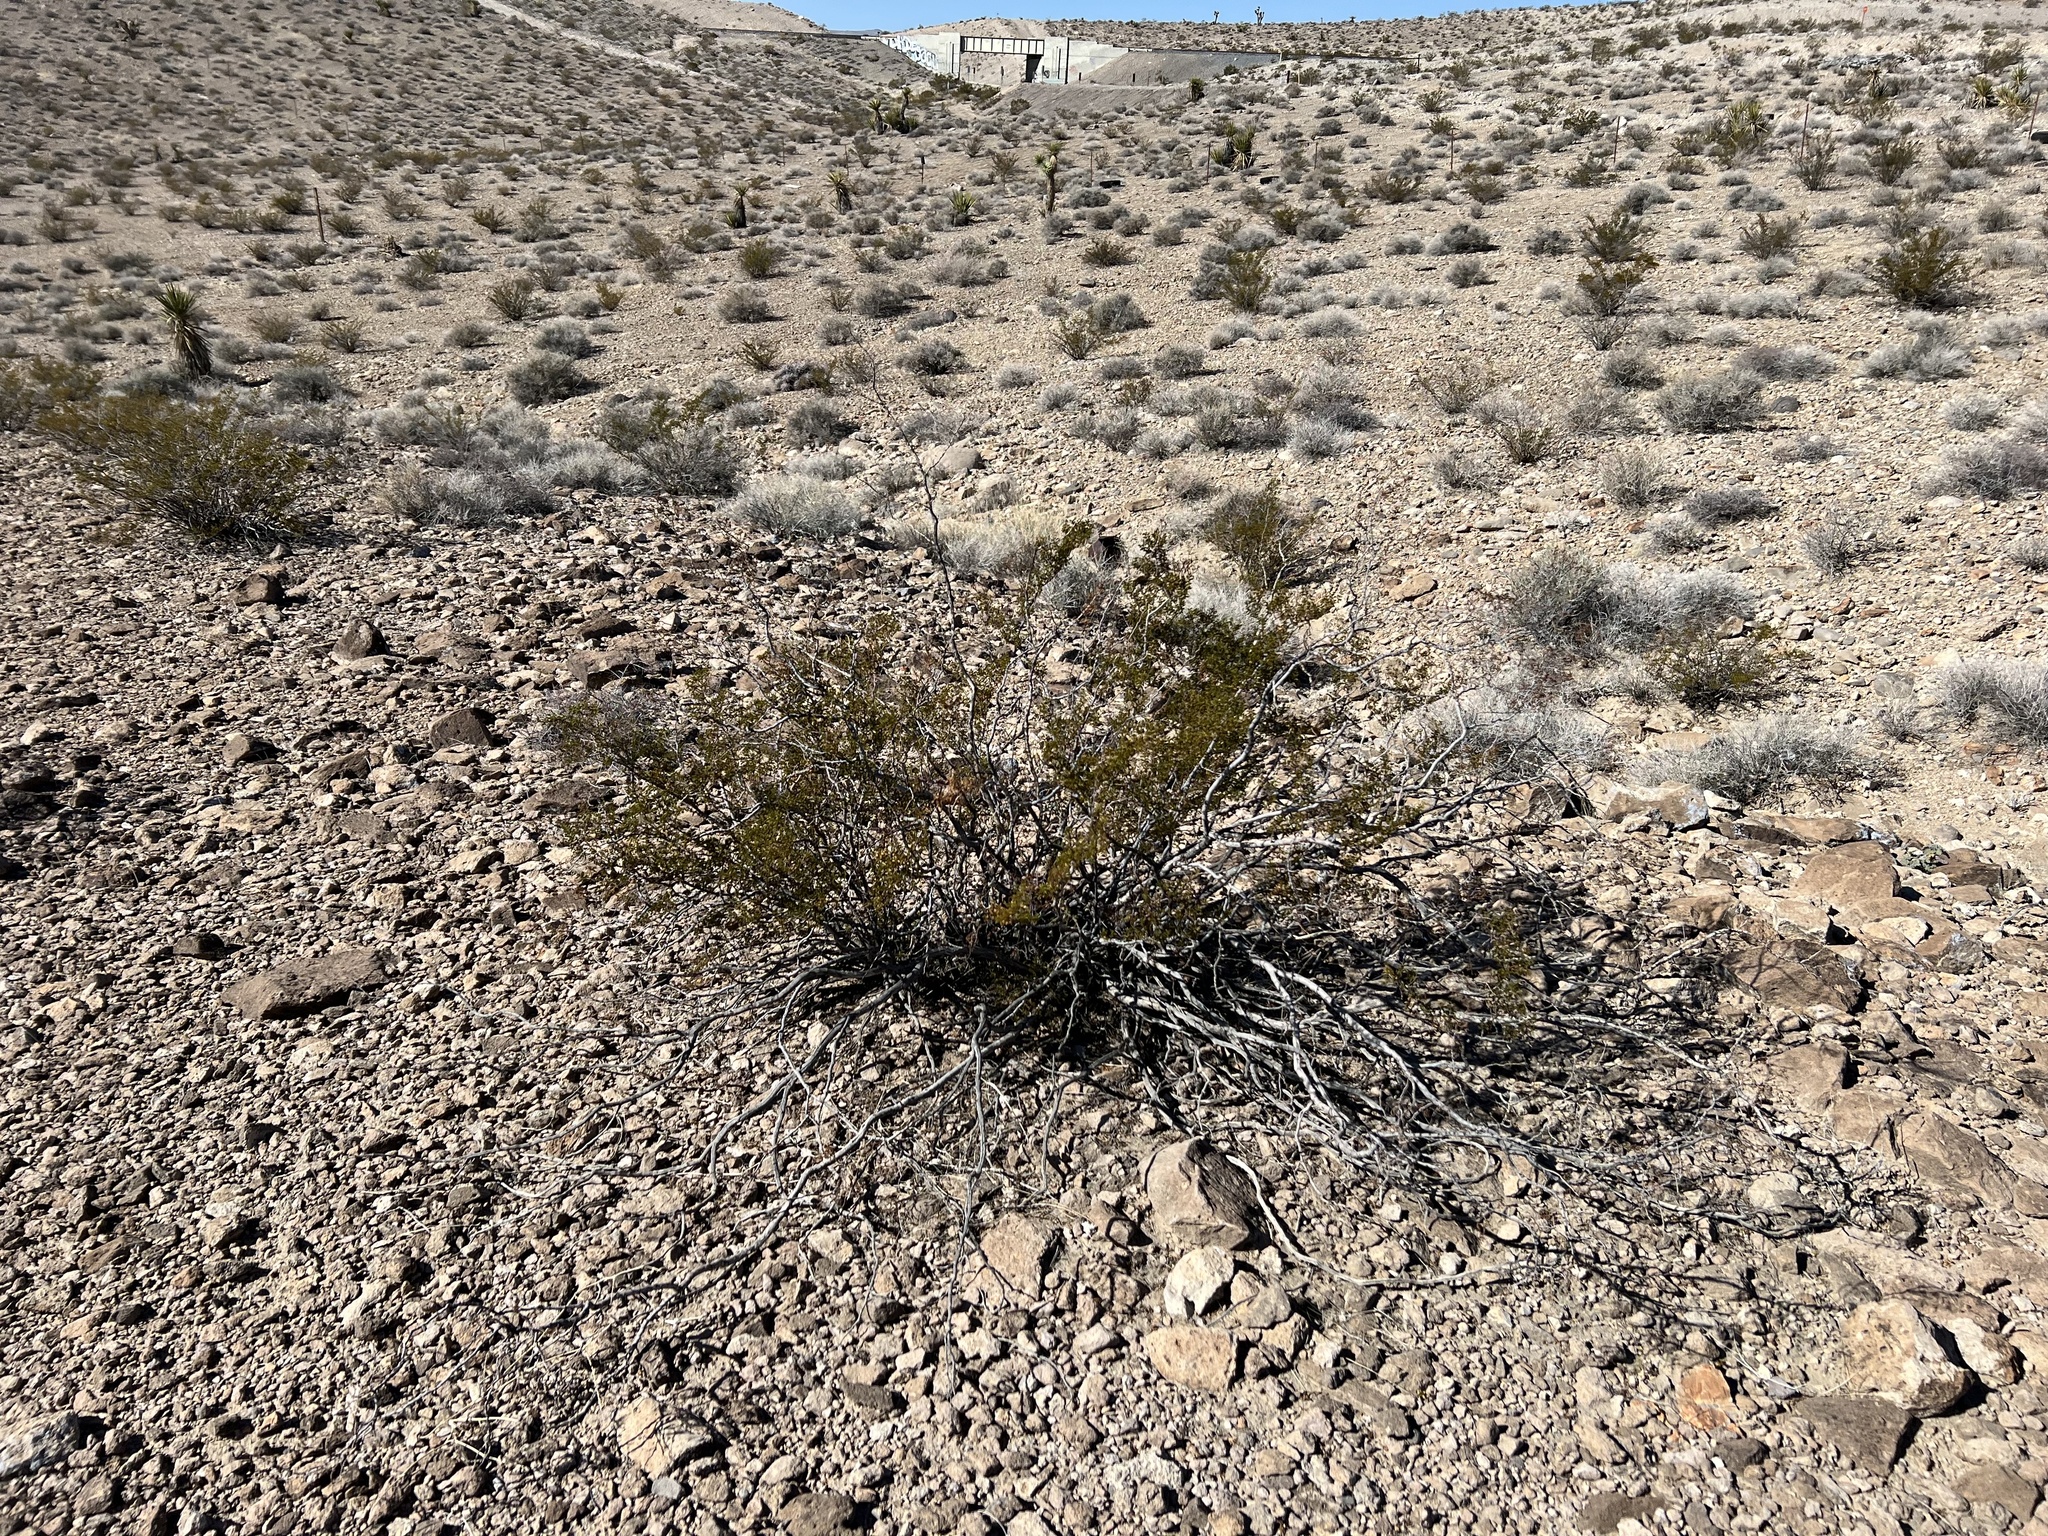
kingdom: Plantae
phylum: Tracheophyta
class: Magnoliopsida
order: Zygophyllales
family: Zygophyllaceae
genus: Larrea
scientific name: Larrea tridentata
